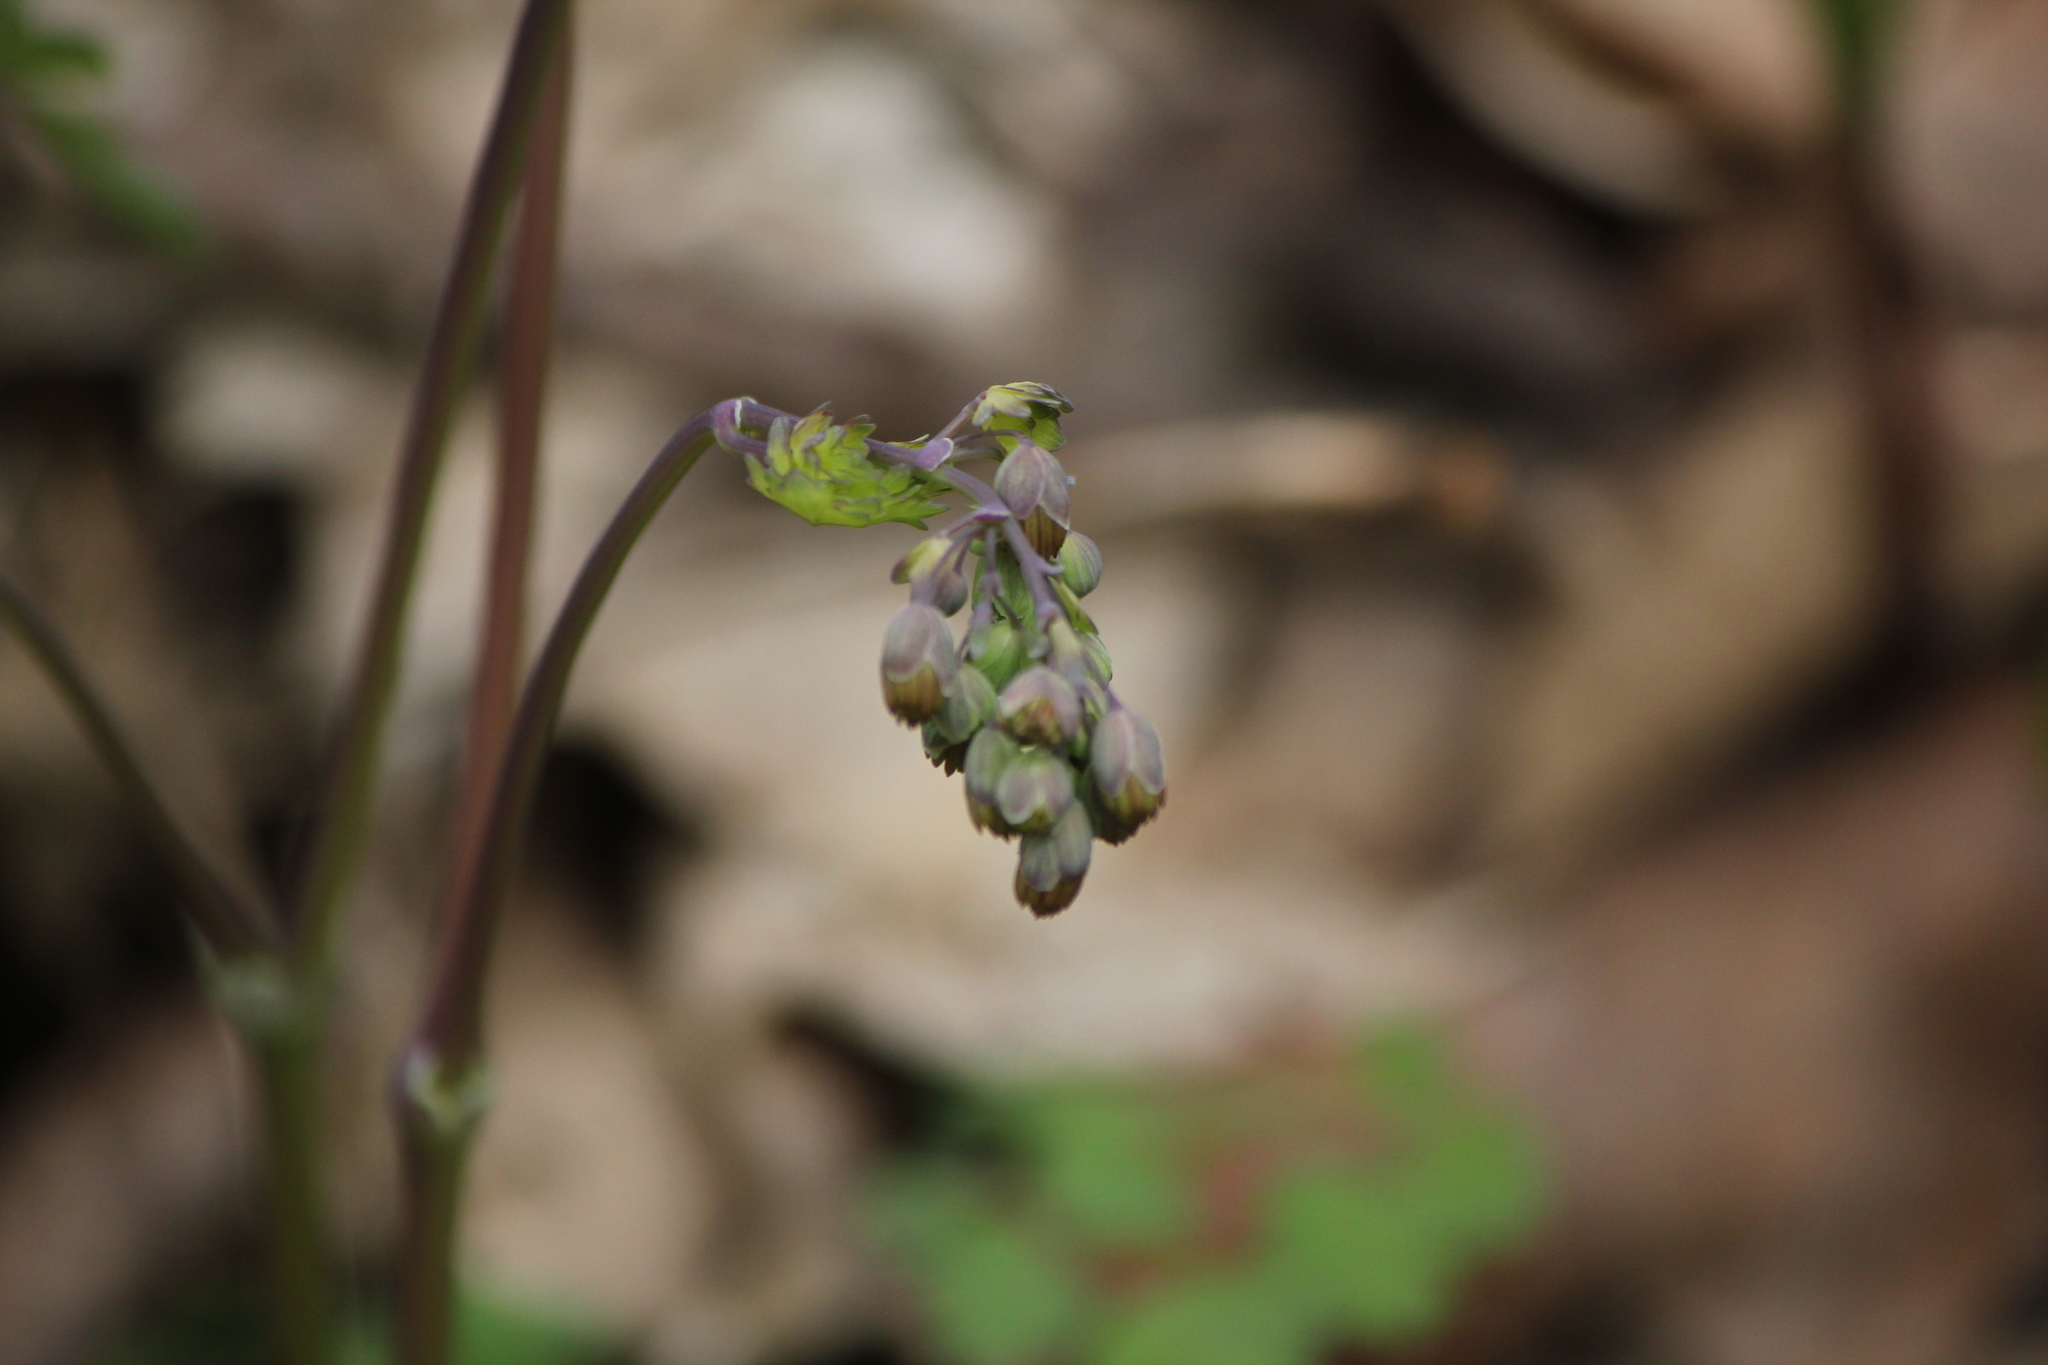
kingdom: Plantae
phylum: Tracheophyta
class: Magnoliopsida
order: Ranunculales
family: Ranunculaceae
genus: Thalictrum
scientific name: Thalictrum dioicum
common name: Early meadow-rue
